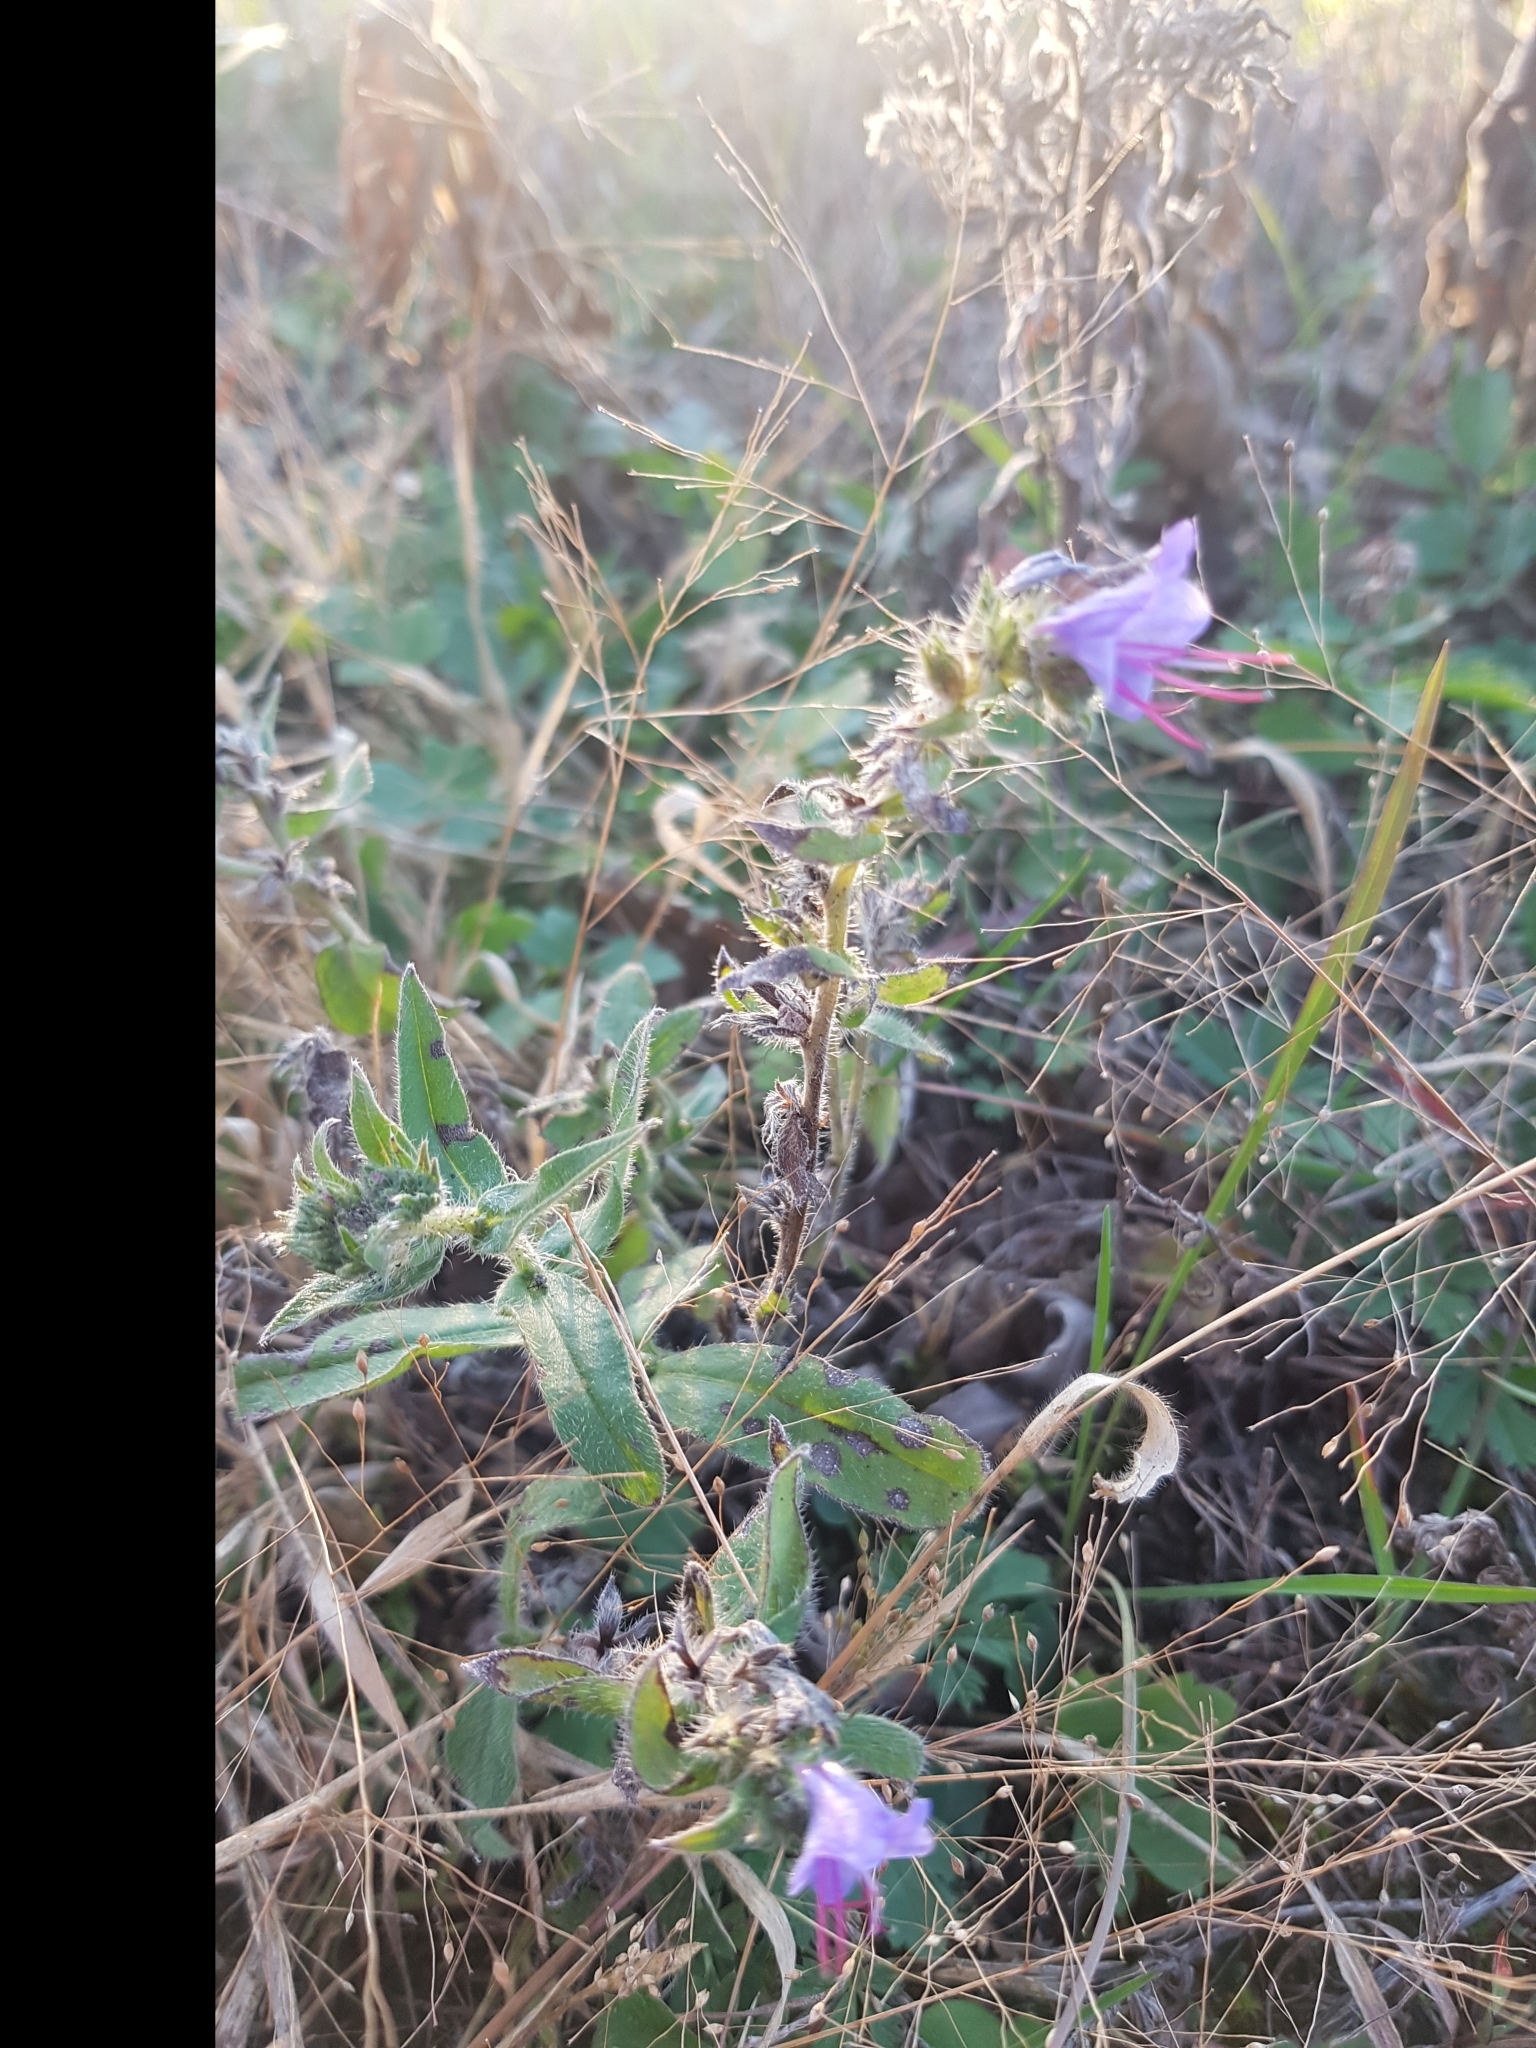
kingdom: Plantae
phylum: Tracheophyta
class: Magnoliopsida
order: Boraginales
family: Boraginaceae
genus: Echium
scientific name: Echium vulgare
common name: Common viper's bugloss
